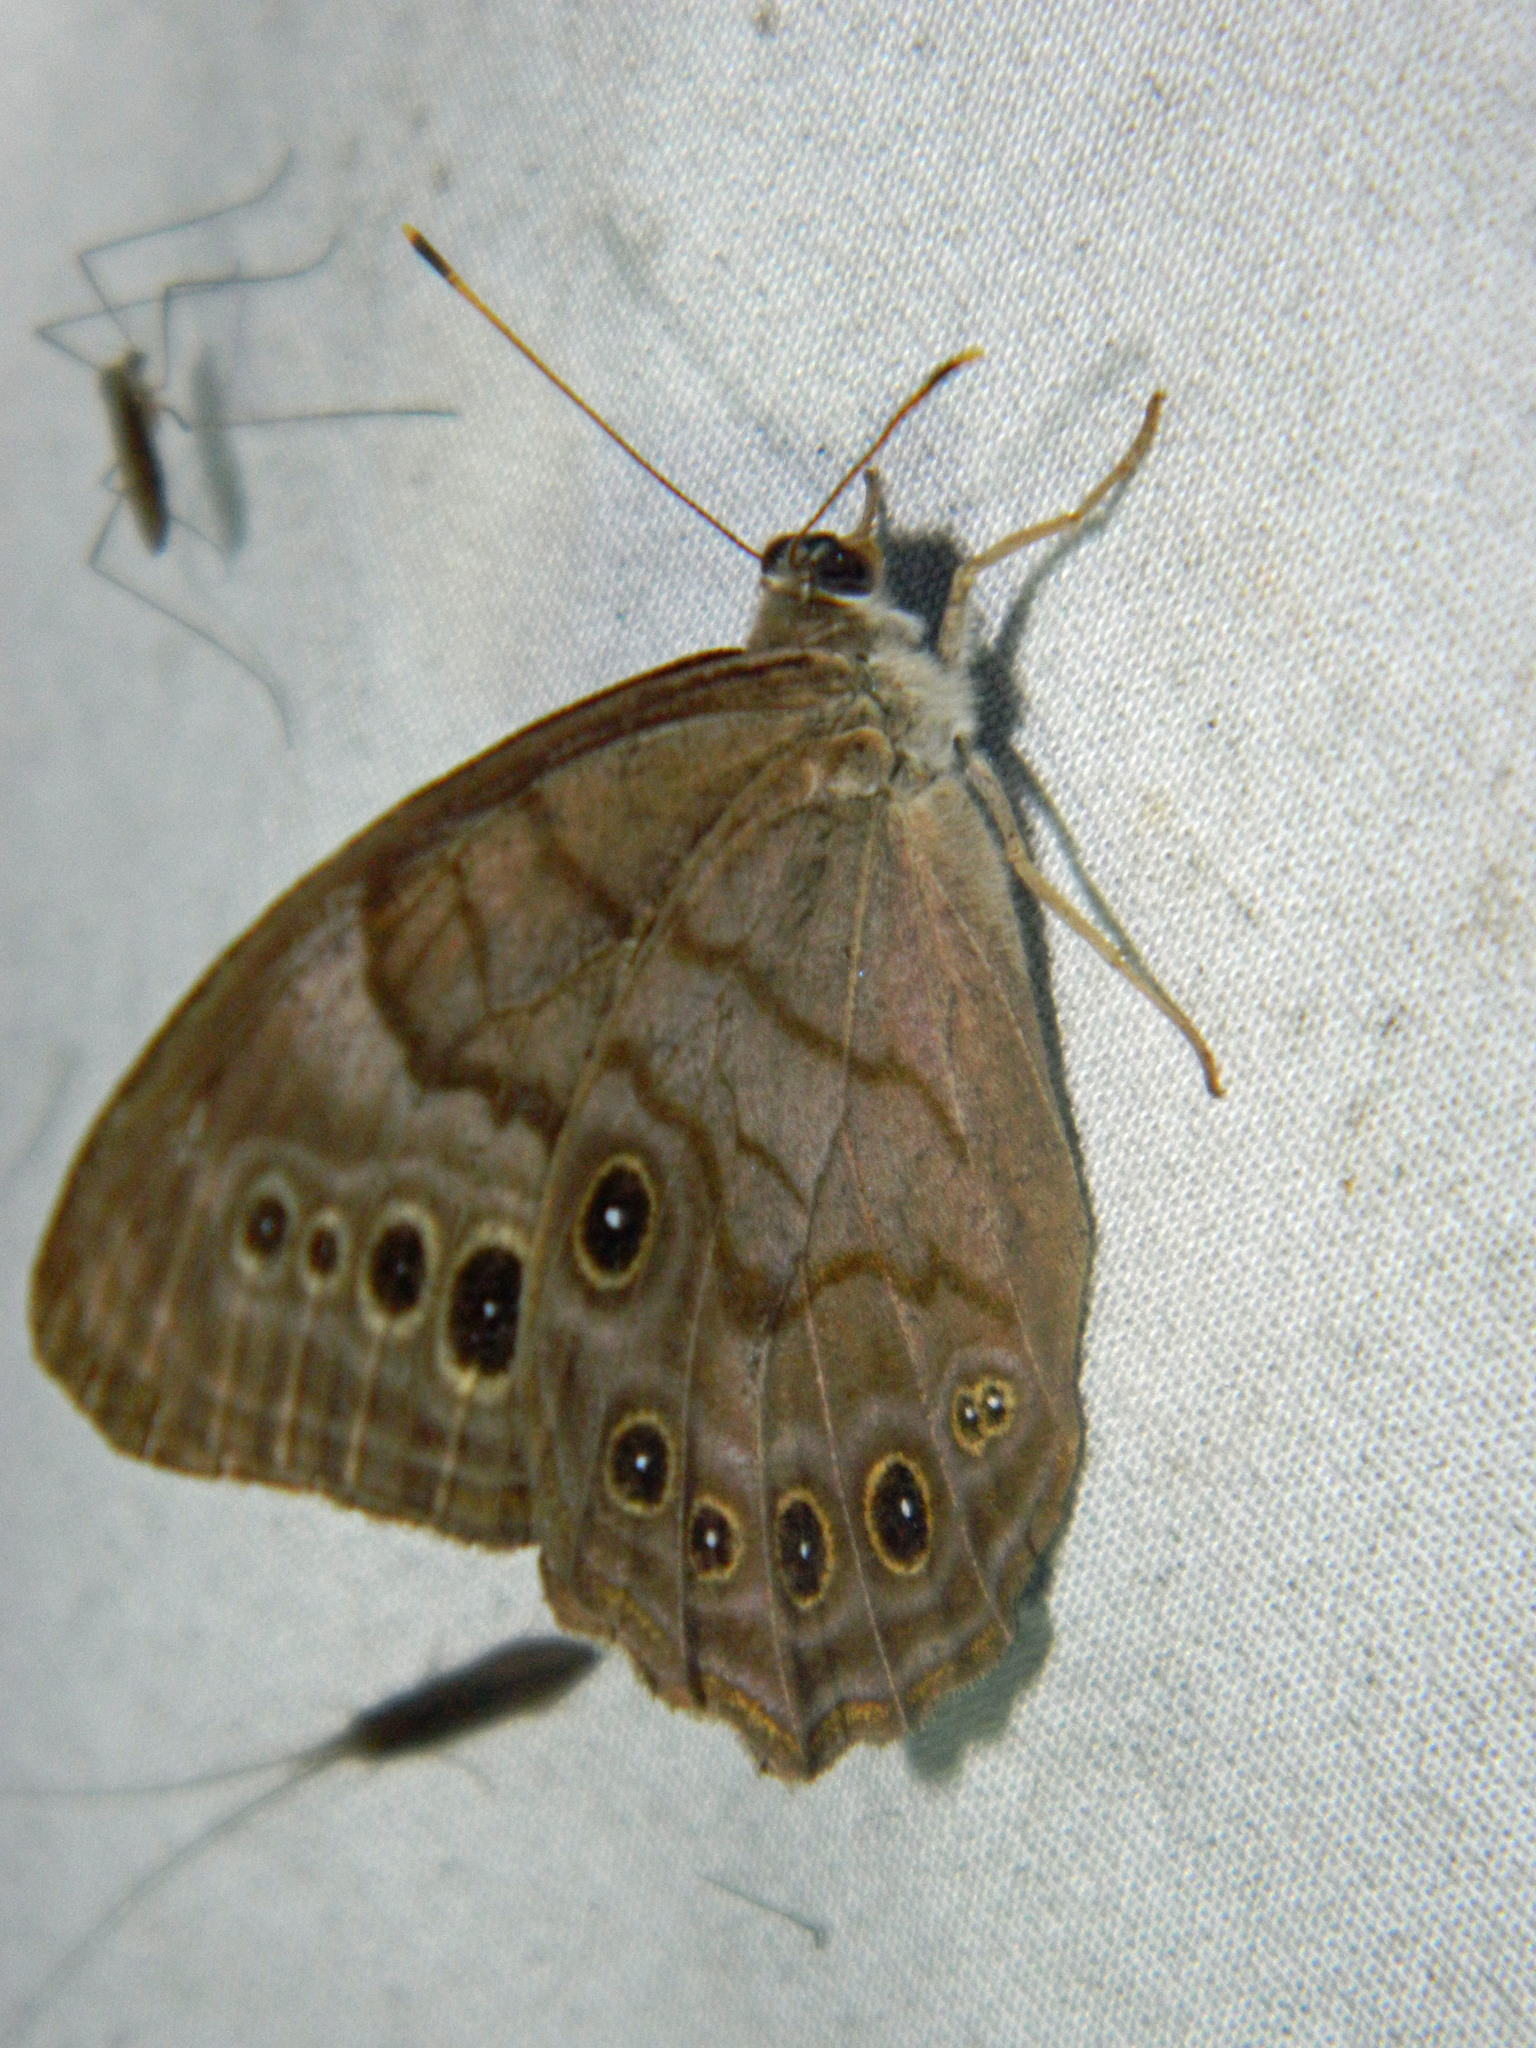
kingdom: Animalia
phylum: Arthropoda
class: Insecta
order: Lepidoptera
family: Nymphalidae
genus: Lethe
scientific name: Lethe anthedon
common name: Northern pearly-eye
